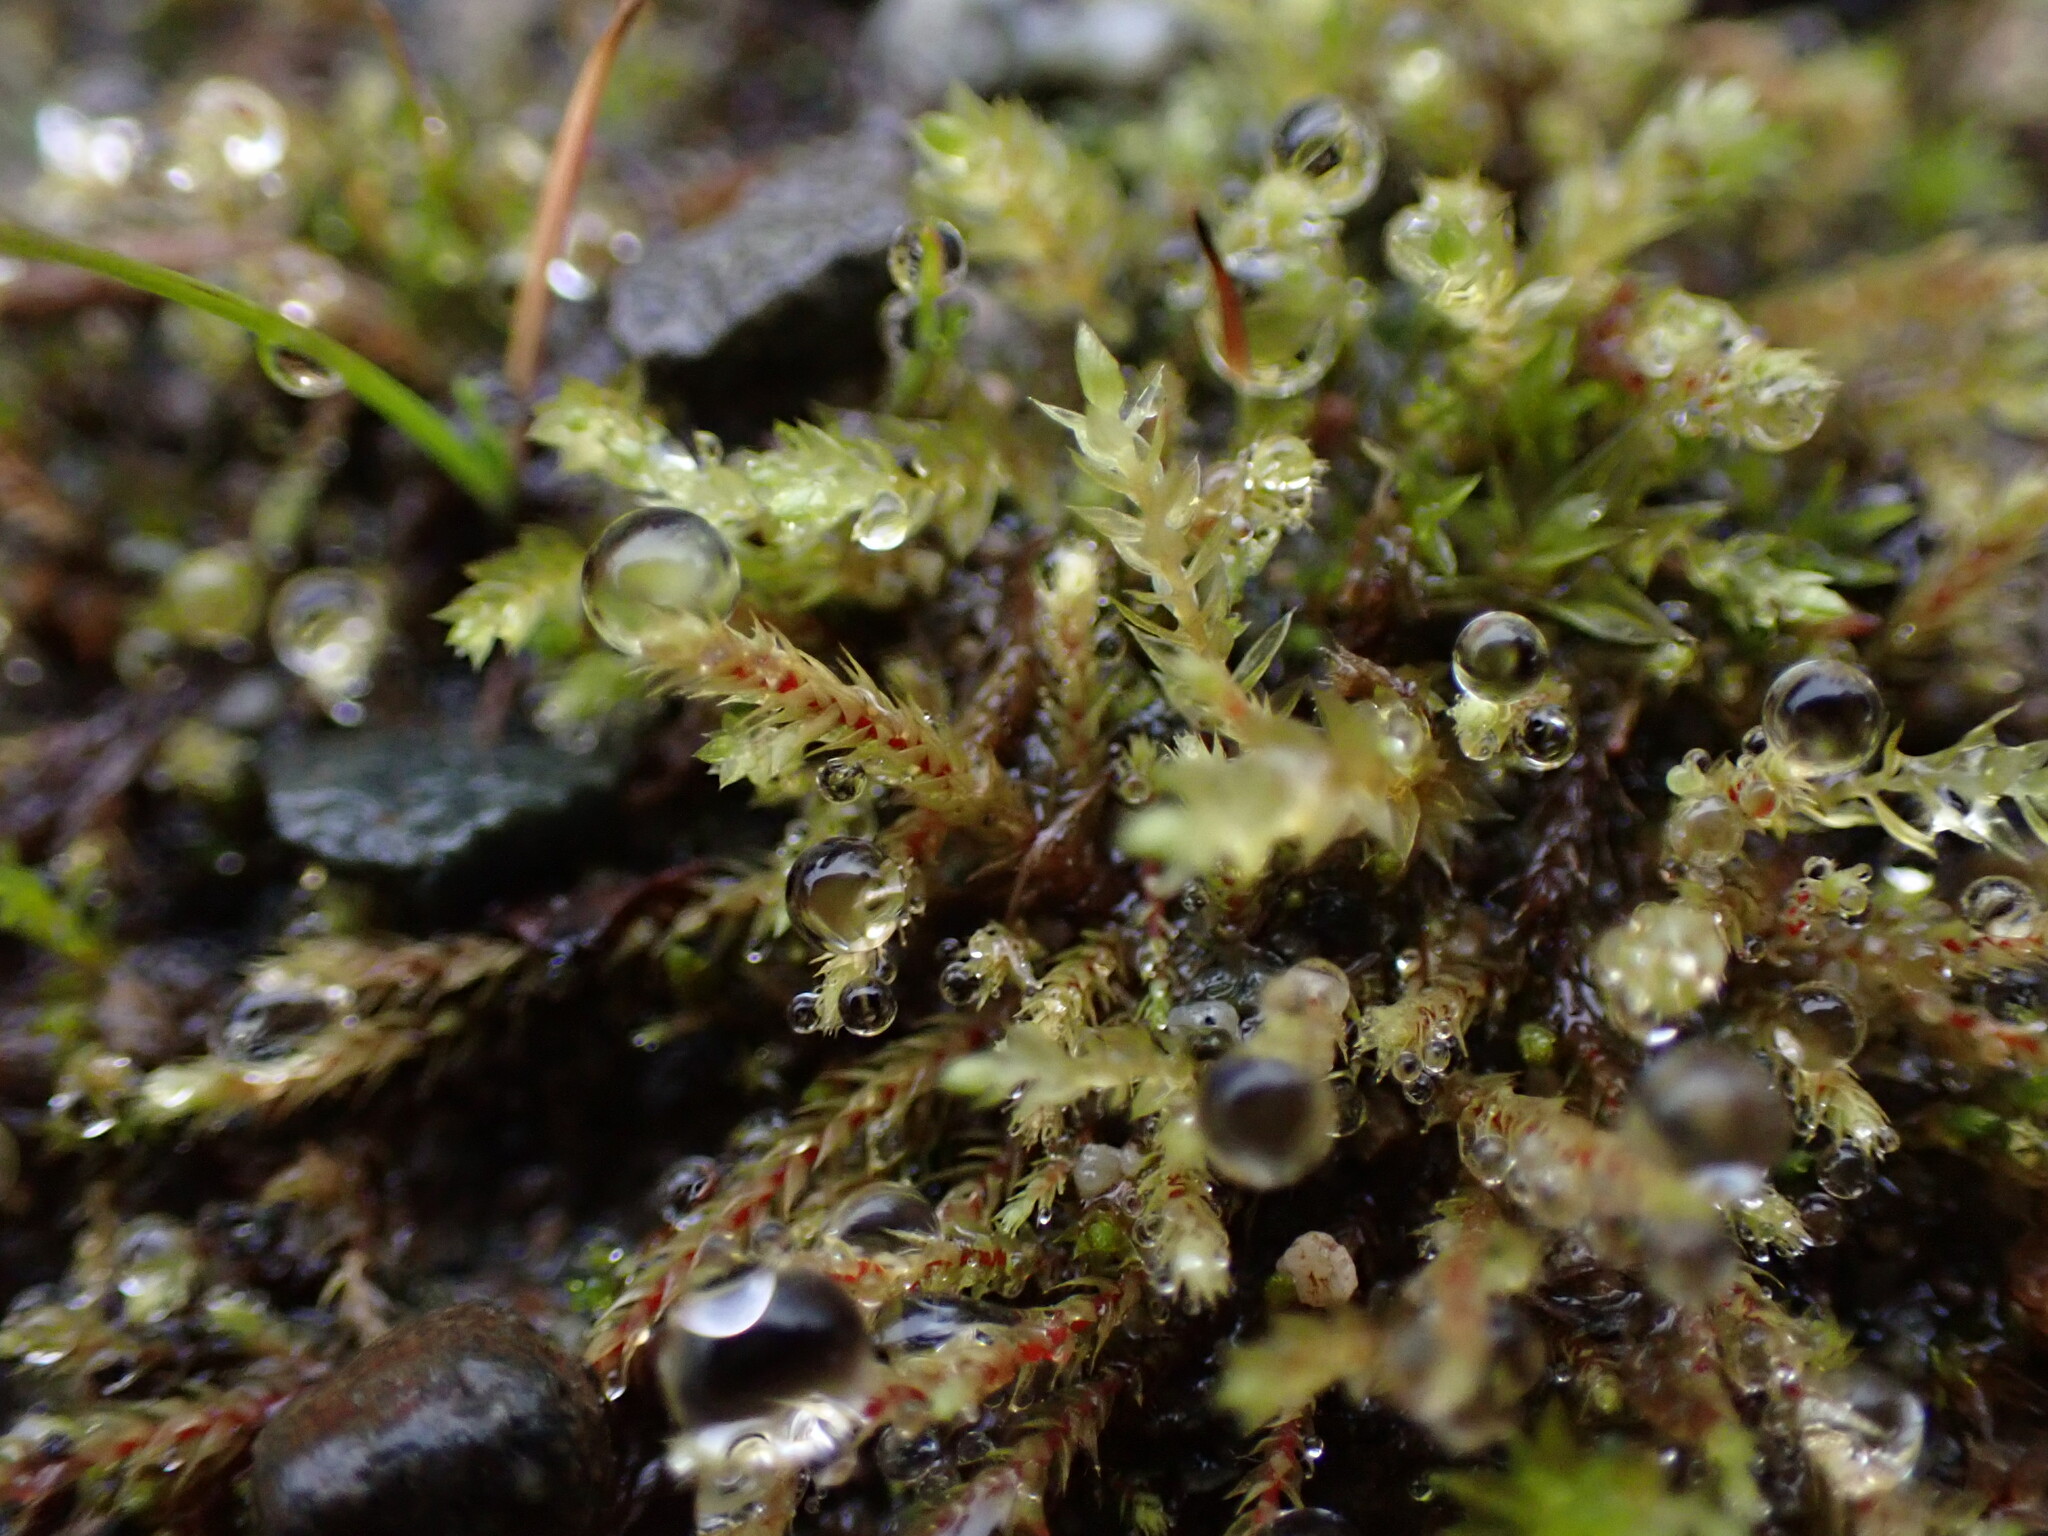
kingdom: Plantae
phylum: Bryophyta
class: Bryopsida
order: Bartramiales
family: Bartramiaceae
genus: Philonotis
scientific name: Philonotis fontana
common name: Fountain apple-moss
